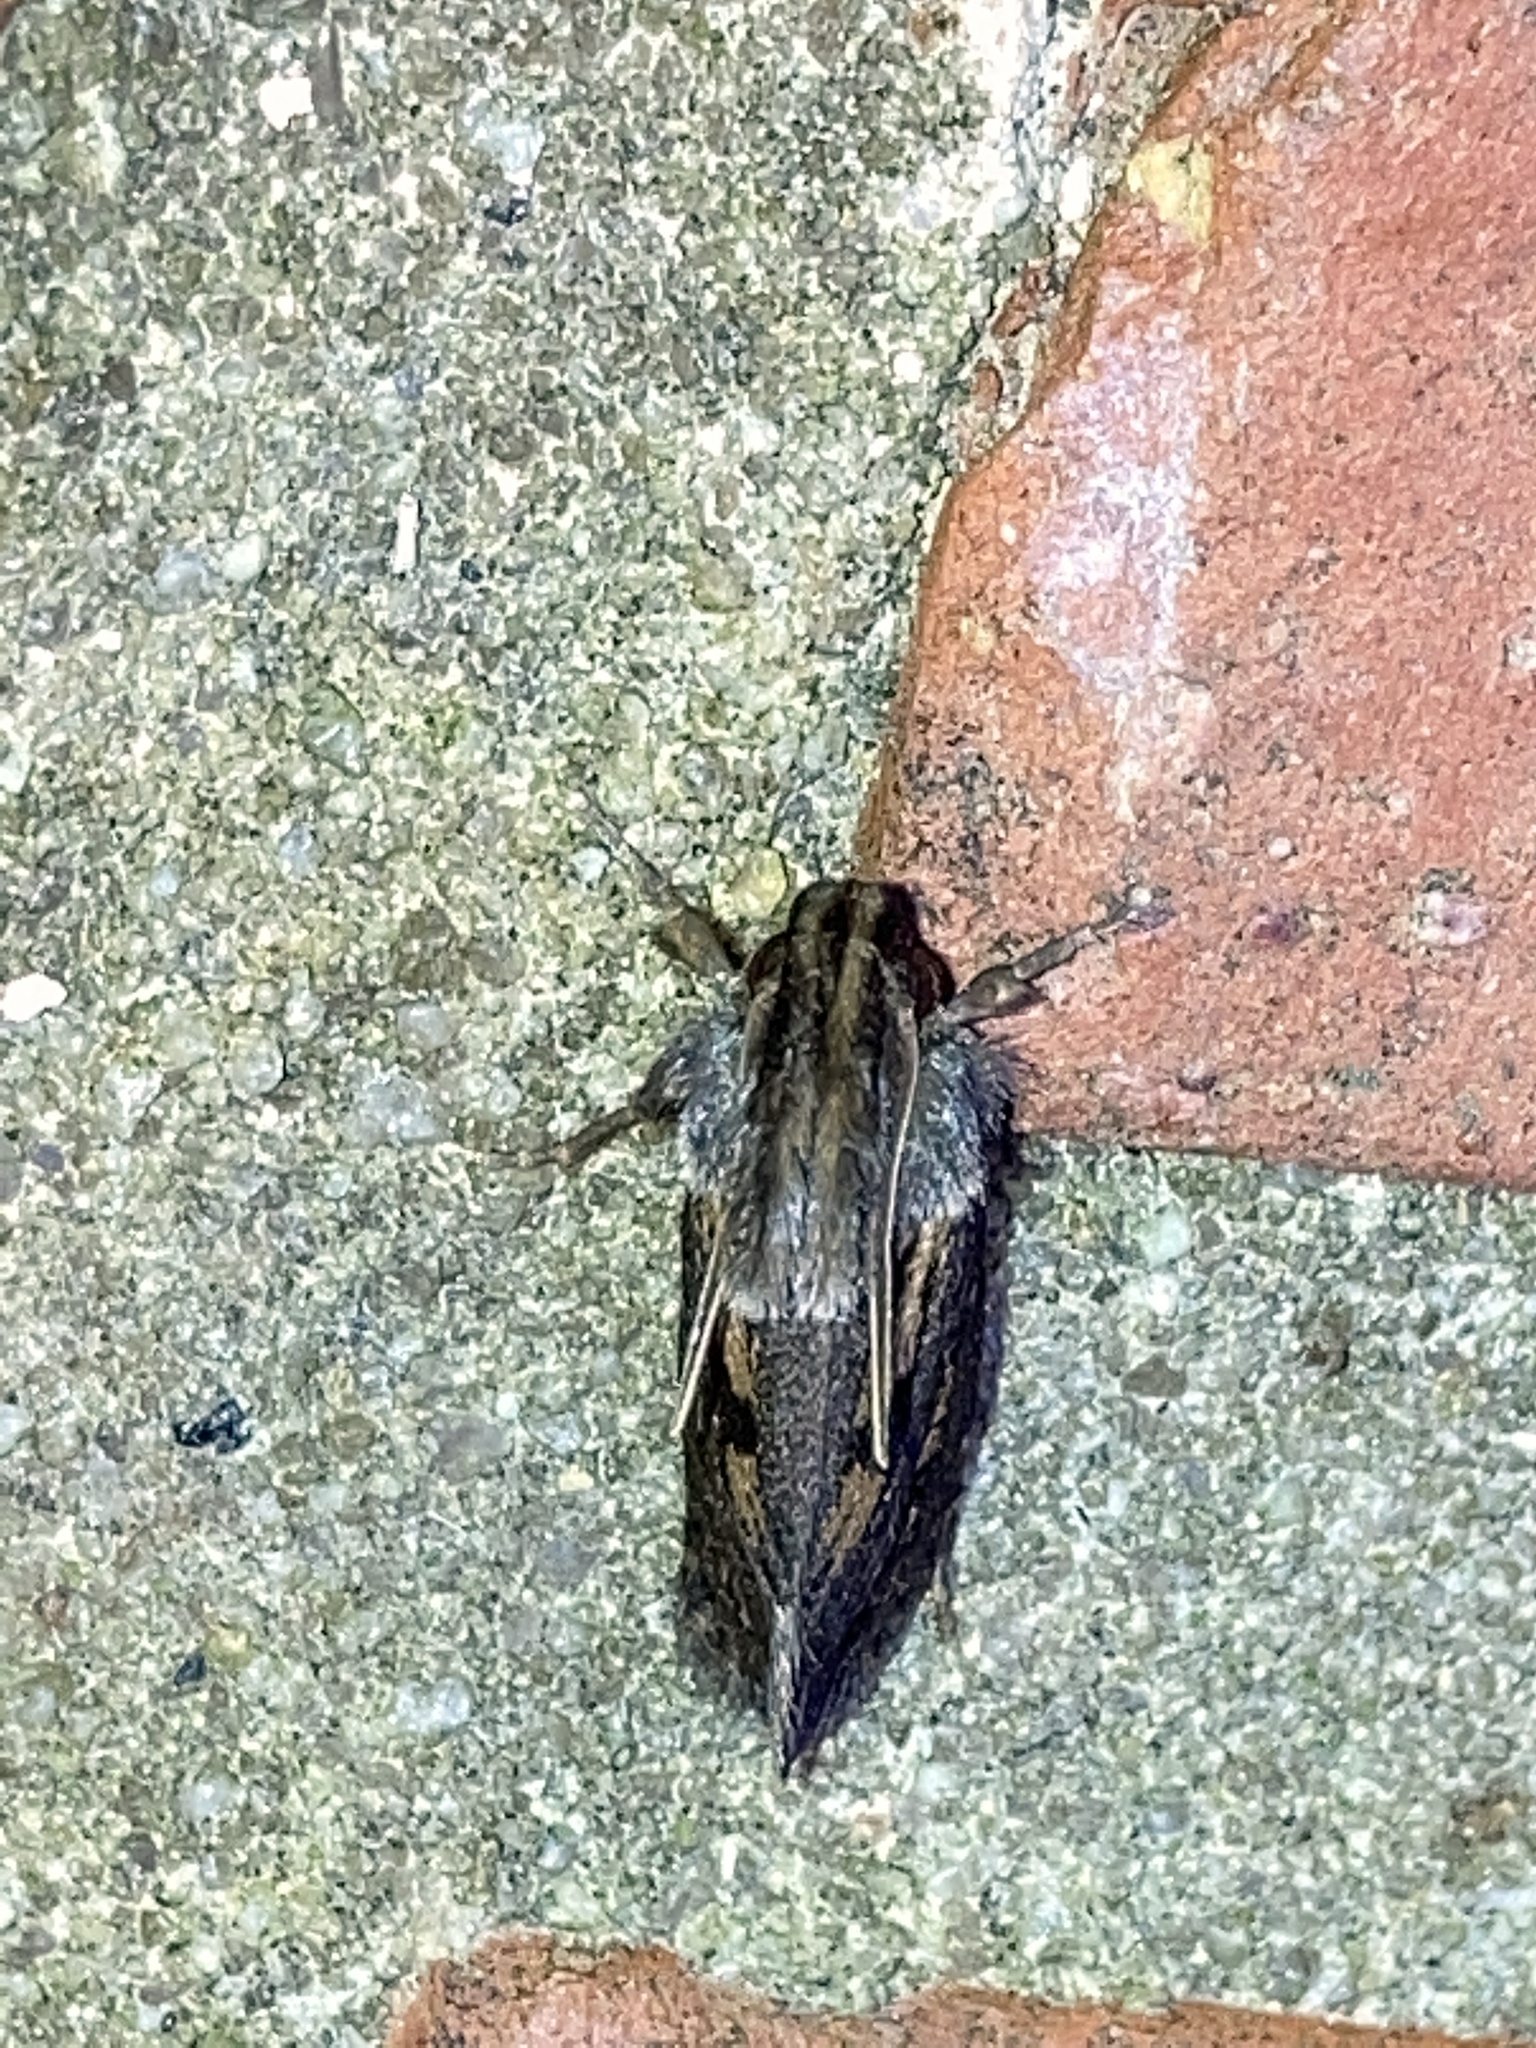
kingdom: Animalia
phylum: Arthropoda
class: Insecta
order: Lepidoptera
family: Tineidae
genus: Acrolophus
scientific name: Acrolophus popeanella
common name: Clemens' grass tubeworm moth
